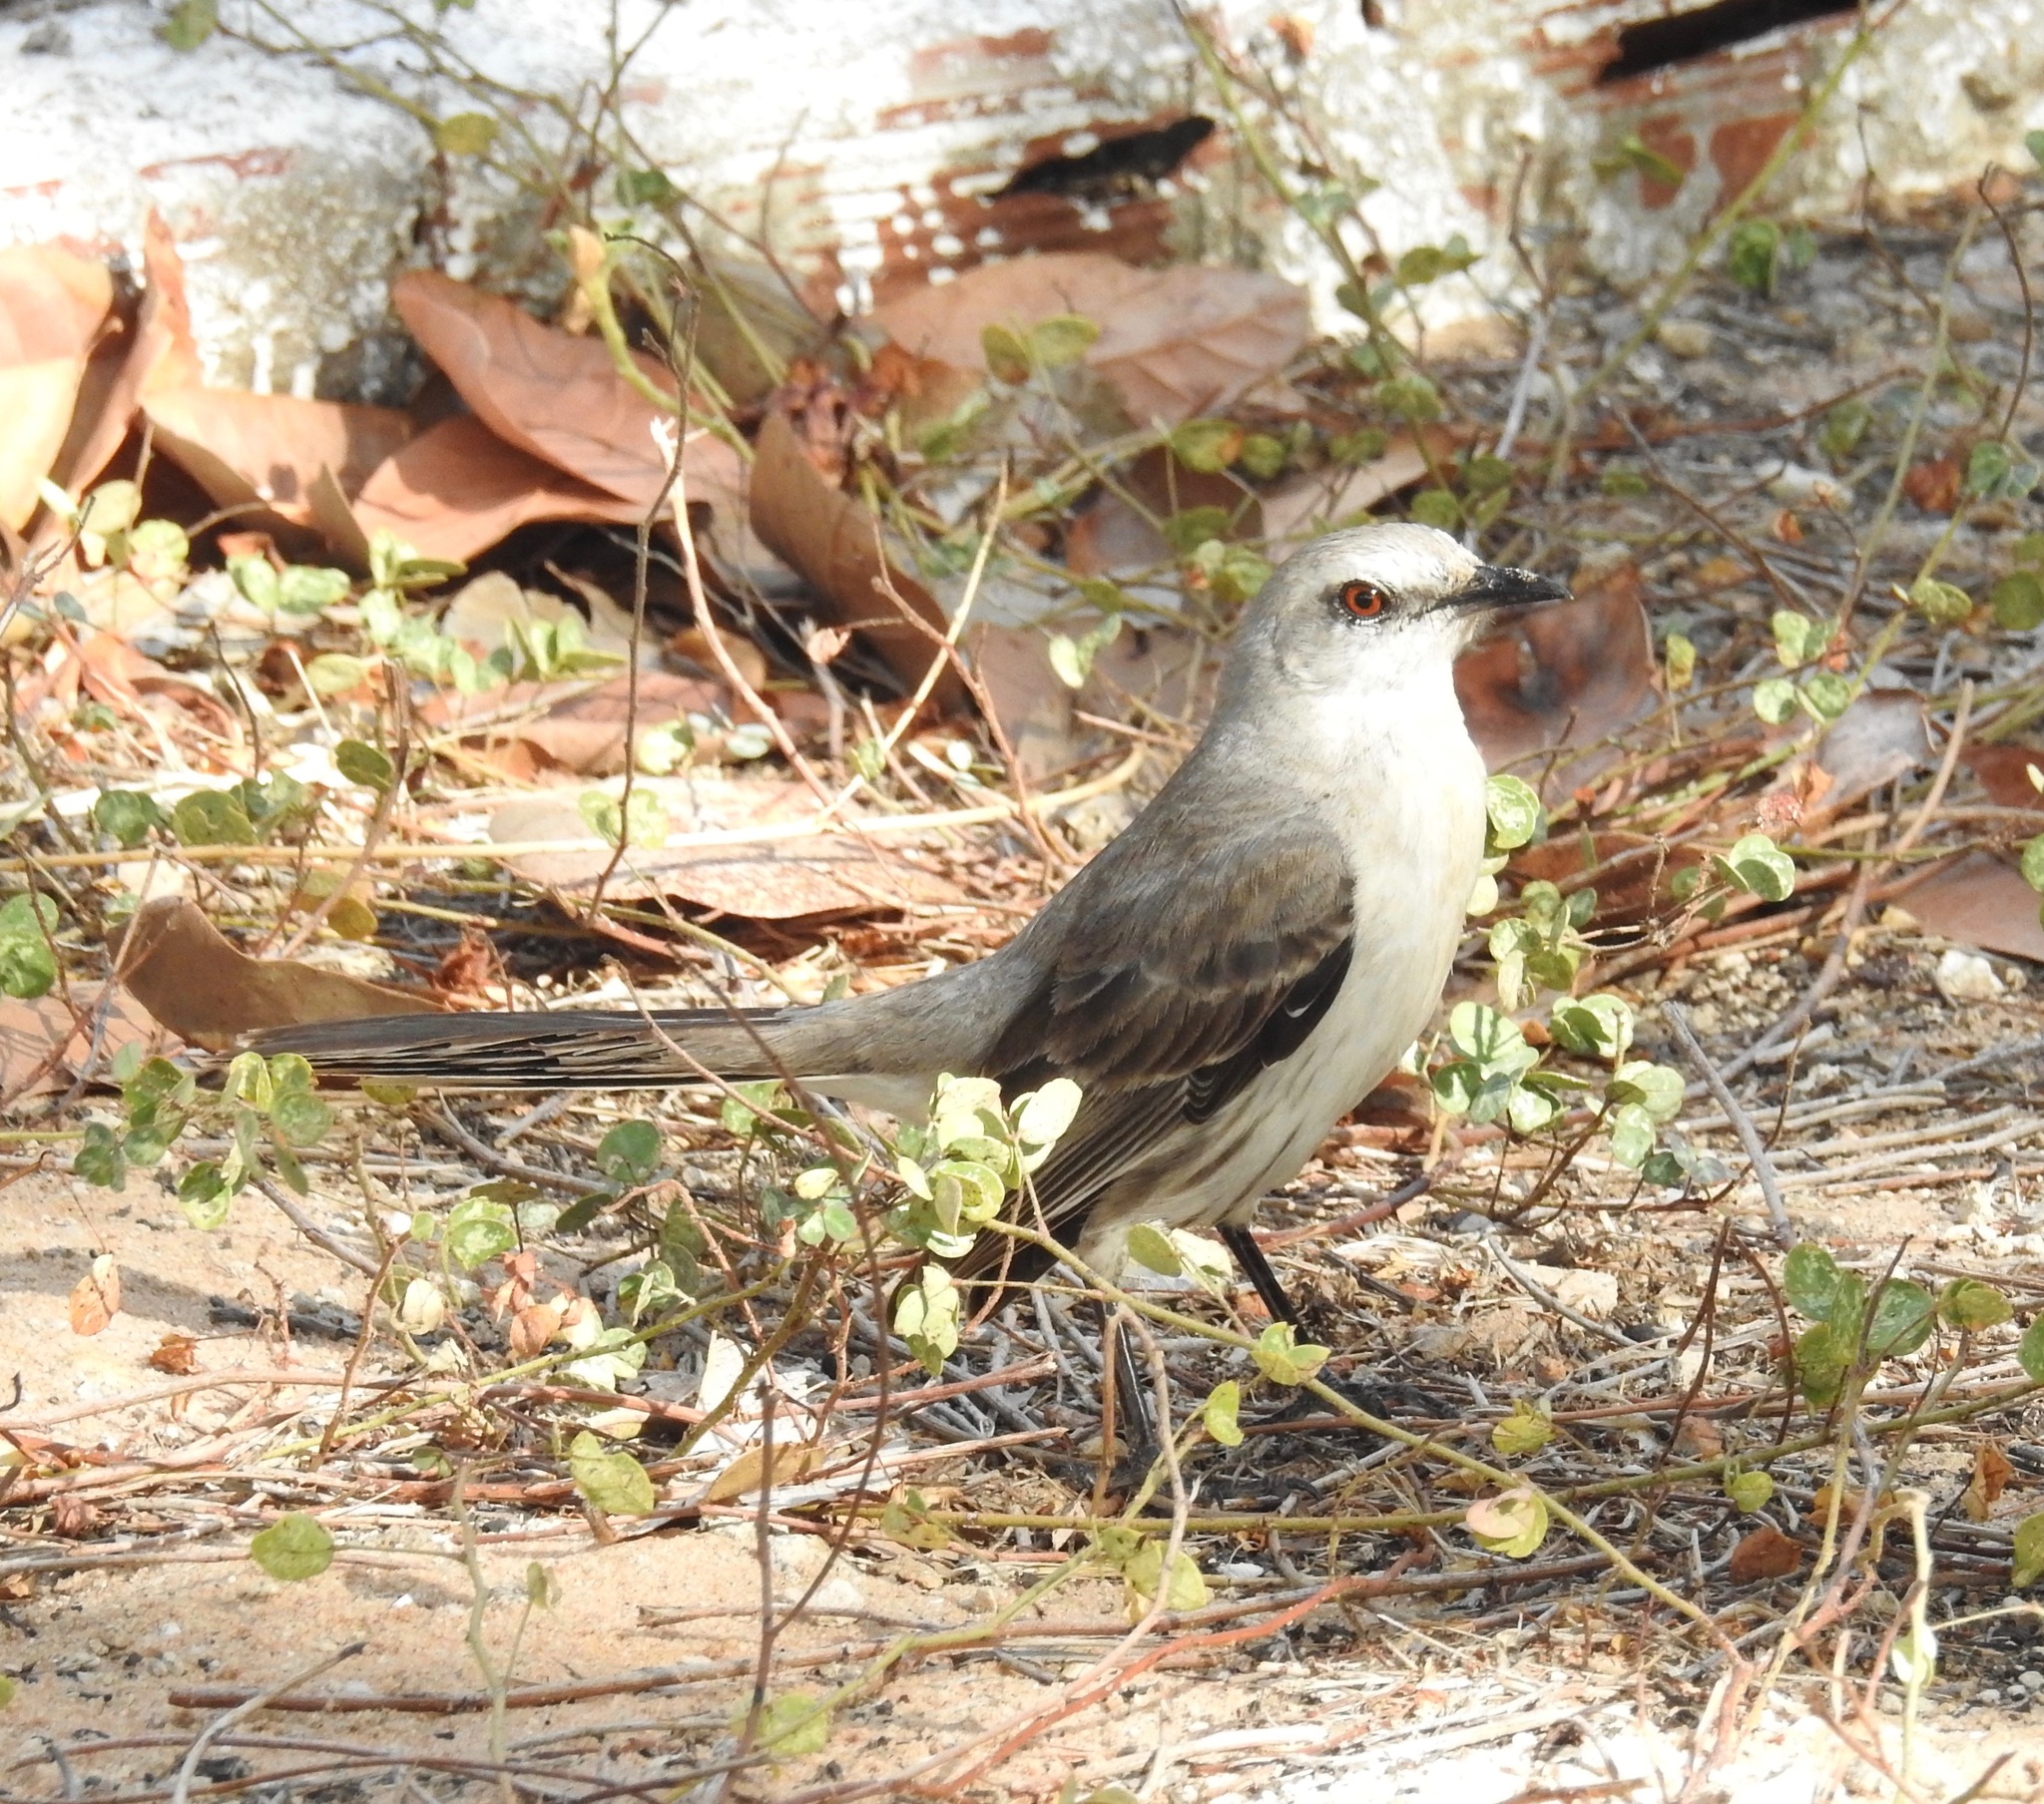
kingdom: Animalia
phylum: Chordata
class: Aves
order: Passeriformes
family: Mimidae
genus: Mimus
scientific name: Mimus gilvus
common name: Tropical mockingbird
